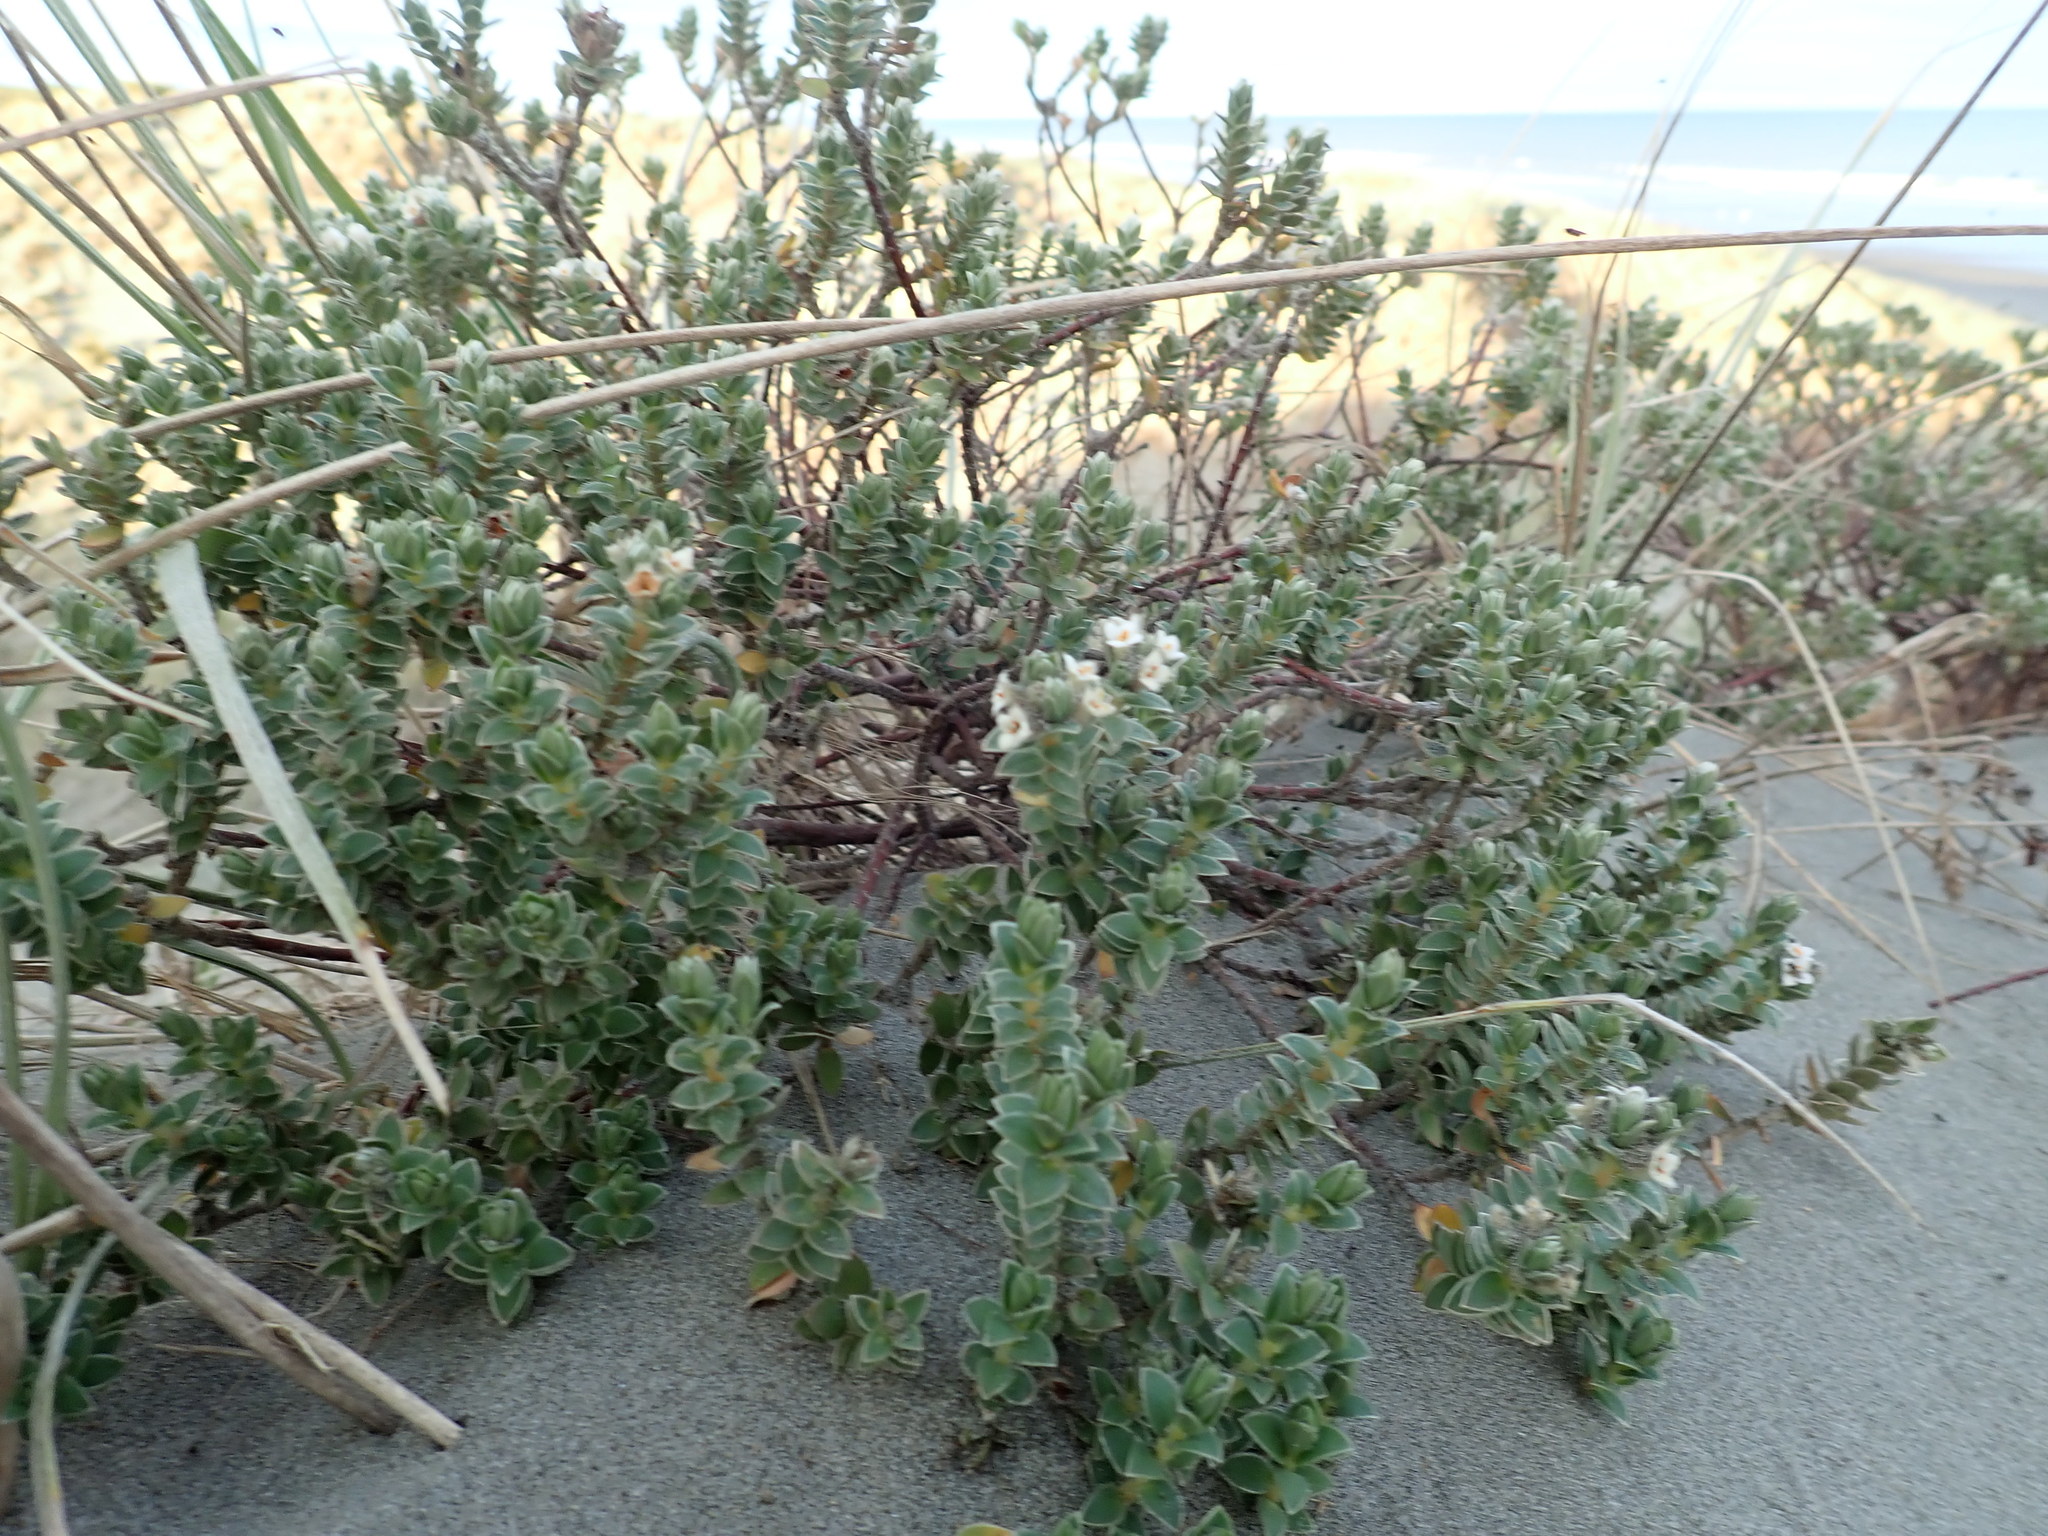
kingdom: Plantae
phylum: Tracheophyta
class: Magnoliopsida
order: Malvales
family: Thymelaeaceae
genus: Pimelea
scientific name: Pimelea villosa
